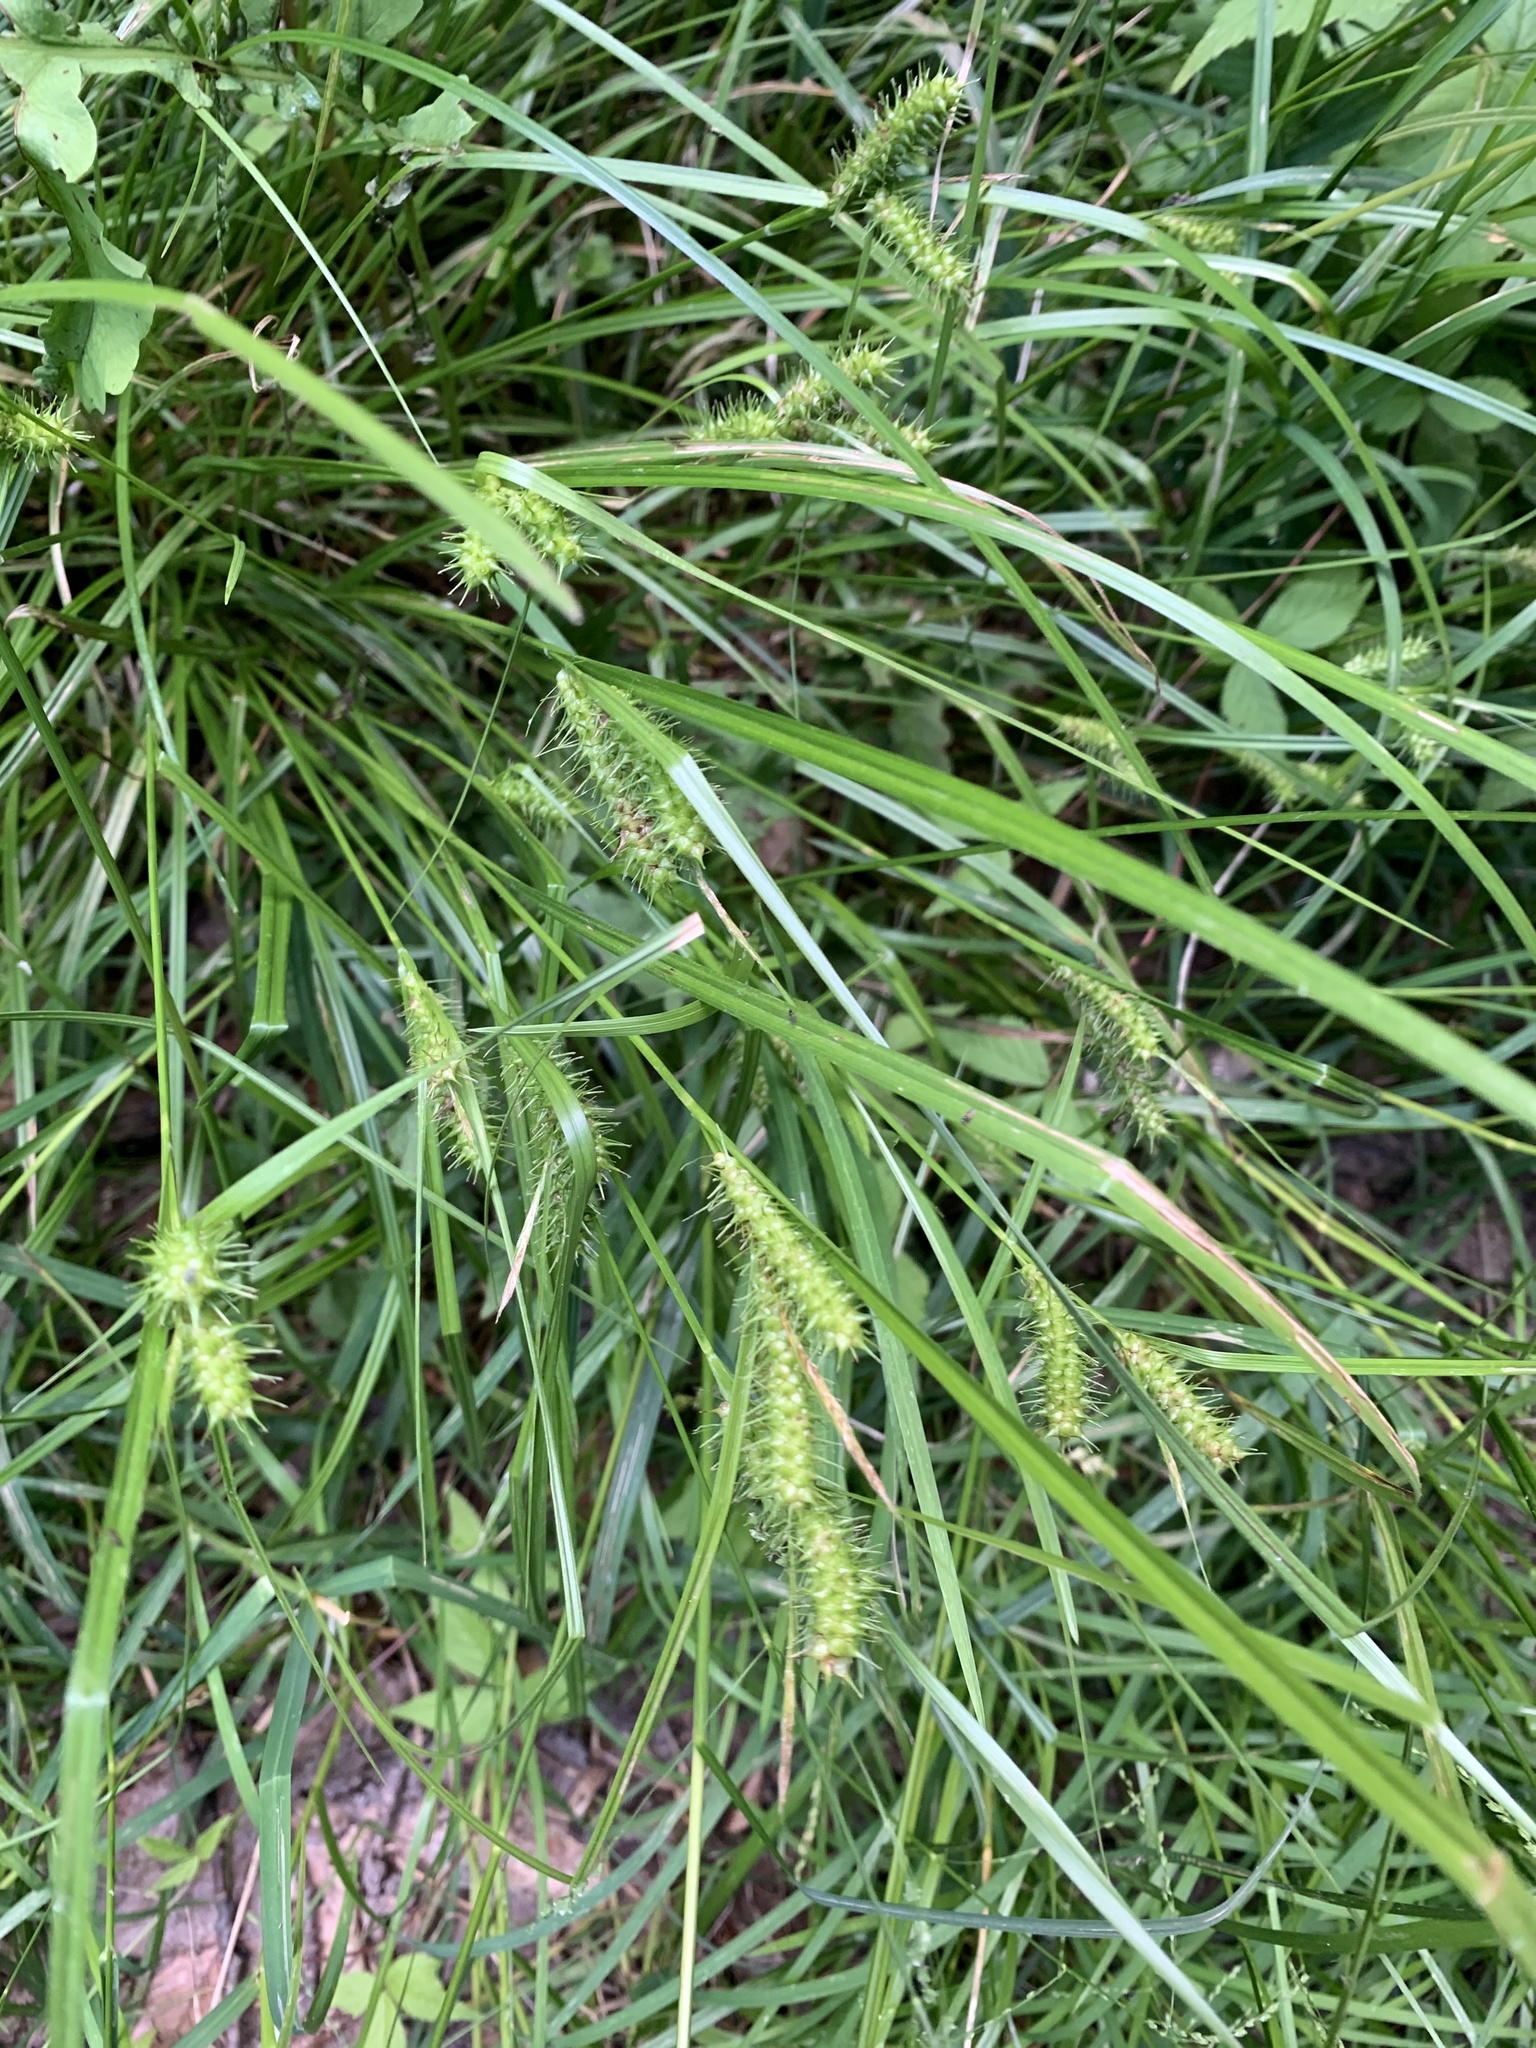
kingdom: Plantae
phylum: Tracheophyta
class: Liliopsida
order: Poales
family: Cyperaceae
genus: Carex
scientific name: Carex baileyi
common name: Bailey's sedge
